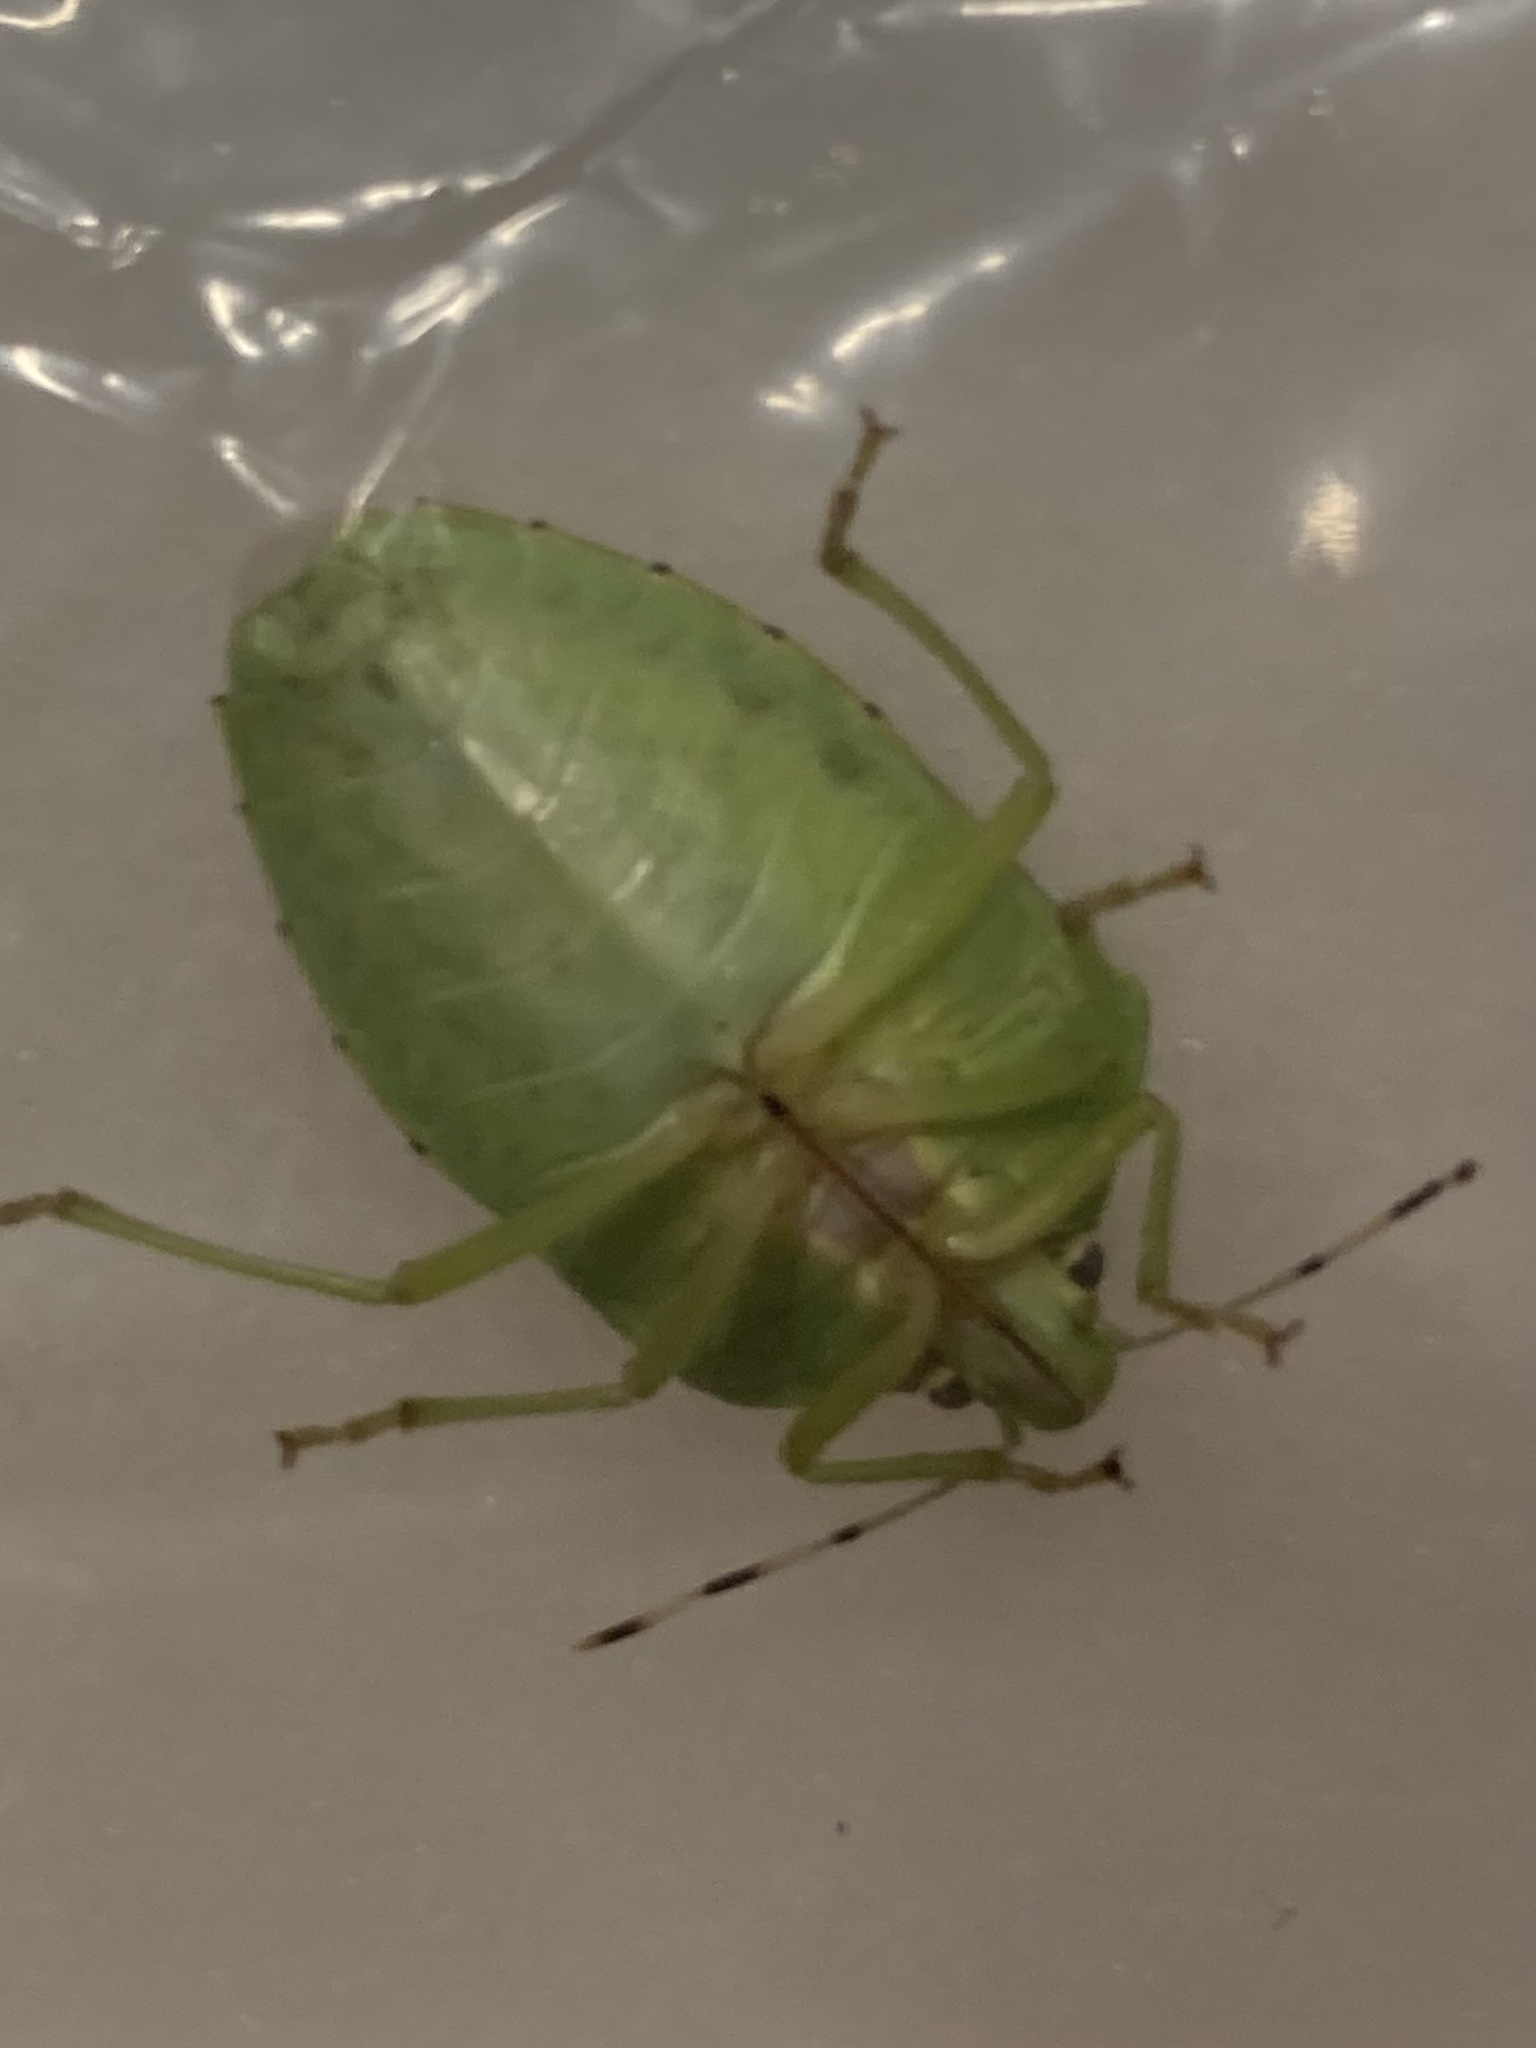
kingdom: Animalia
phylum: Arthropoda
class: Insecta
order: Hemiptera
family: Pentatomidae
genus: Chinavia
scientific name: Chinavia hilaris
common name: Green stink bug
